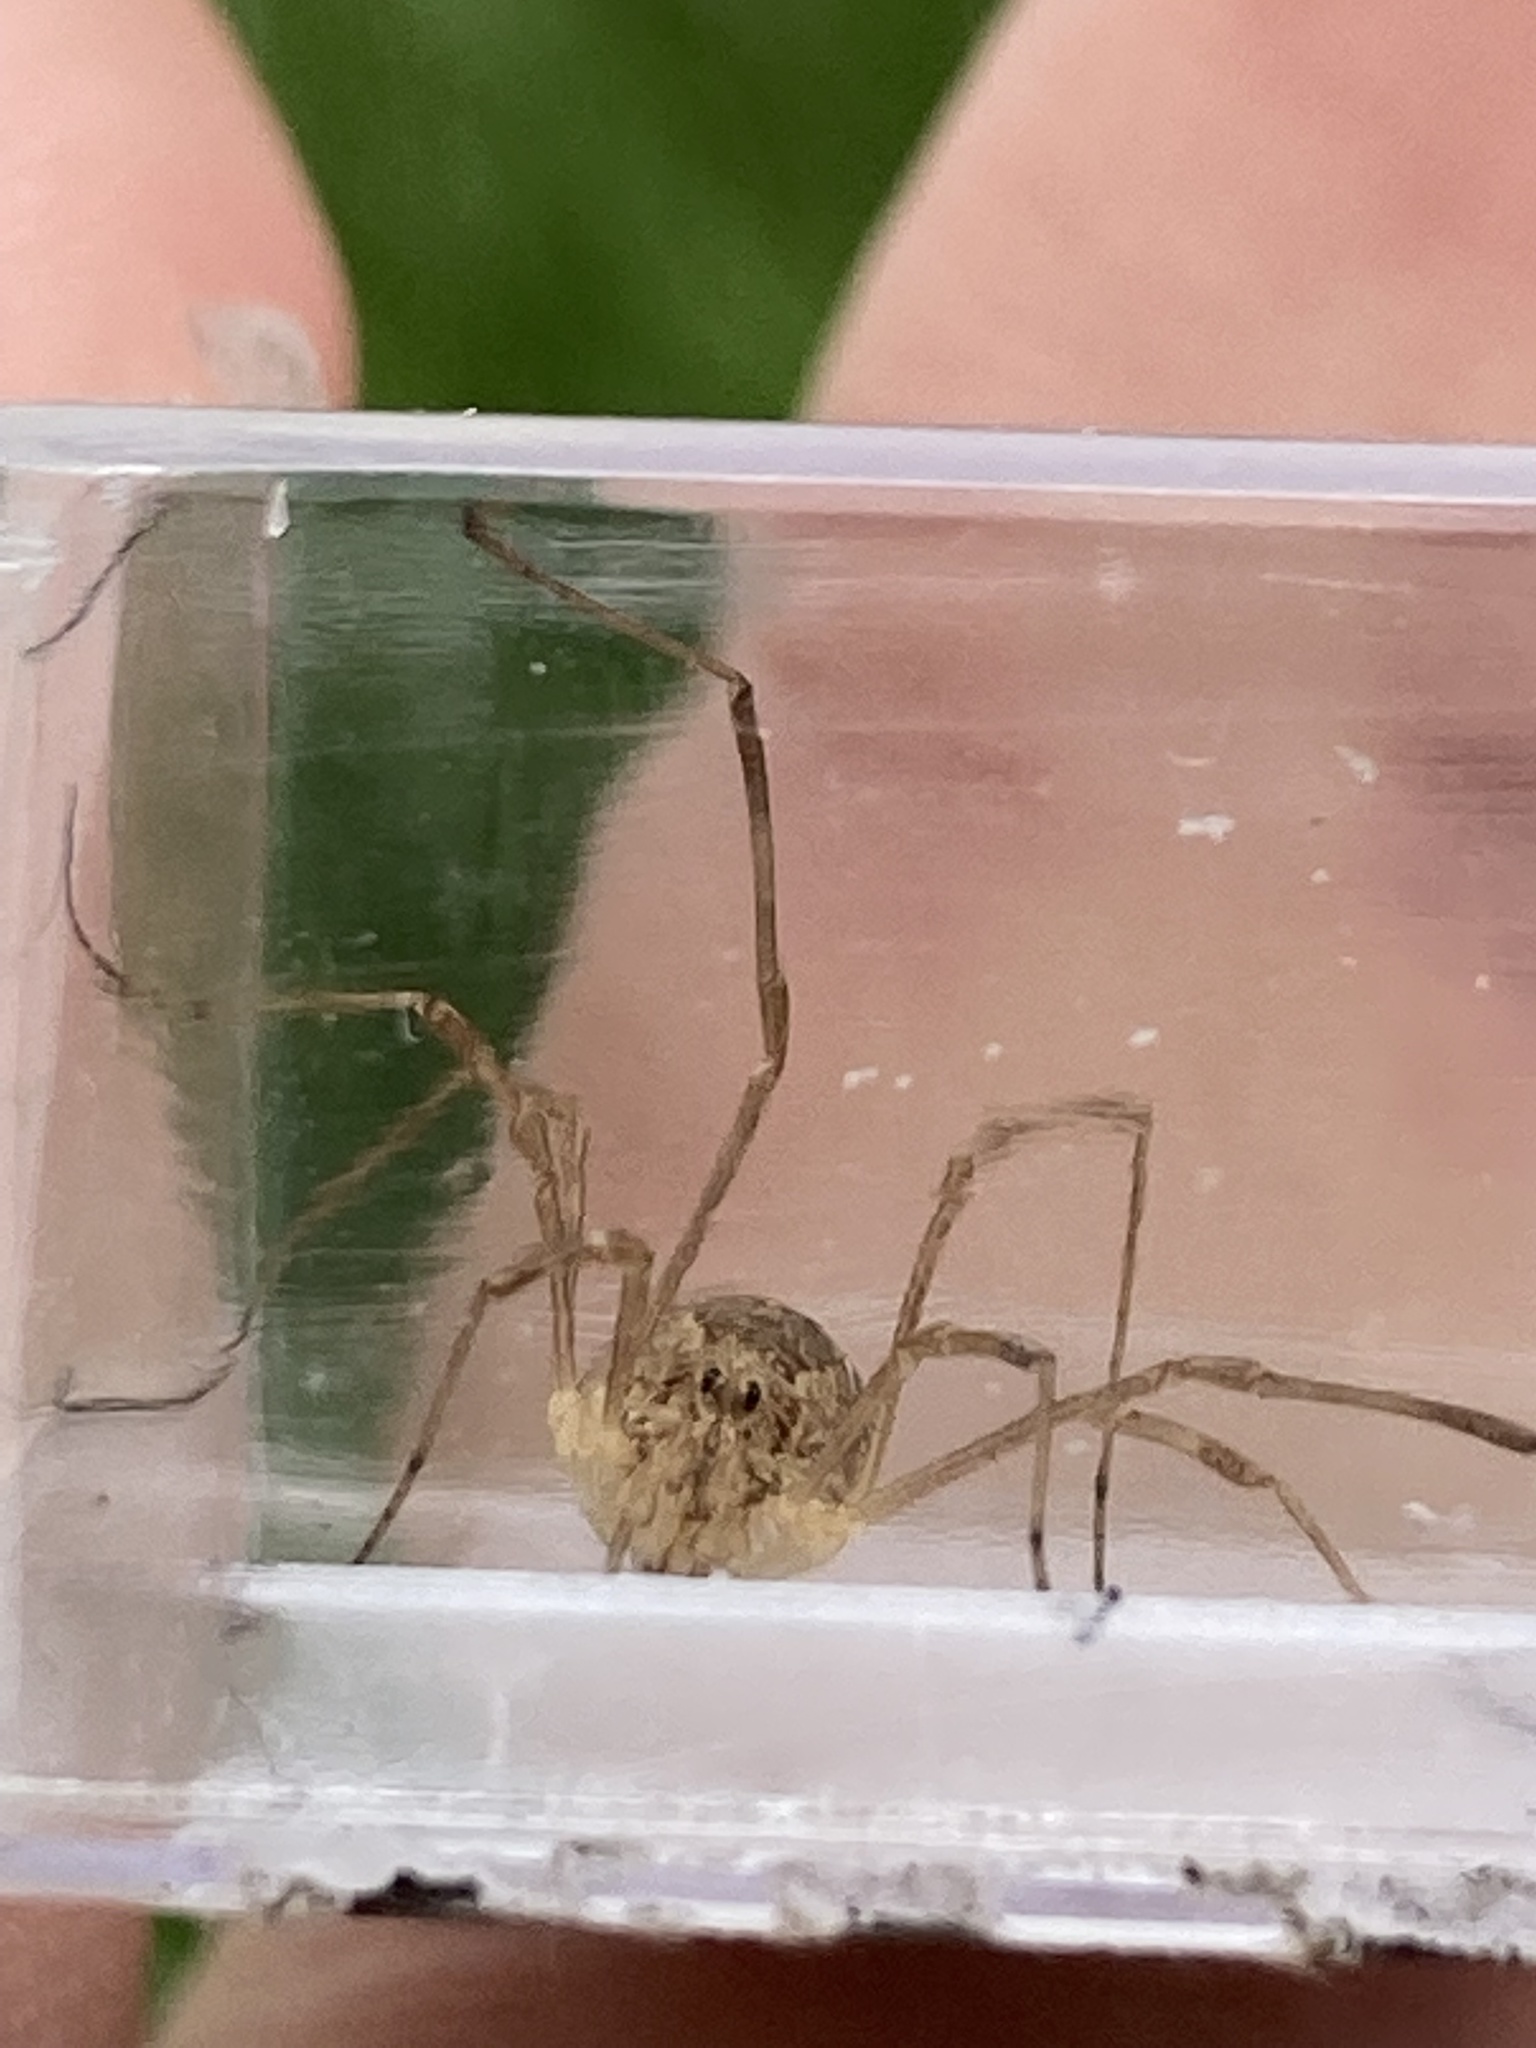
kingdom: Animalia
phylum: Arthropoda
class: Arachnida
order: Opiliones
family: Phalangiidae
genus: Rilaena
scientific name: Rilaena triangularis
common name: Spring harvestman
